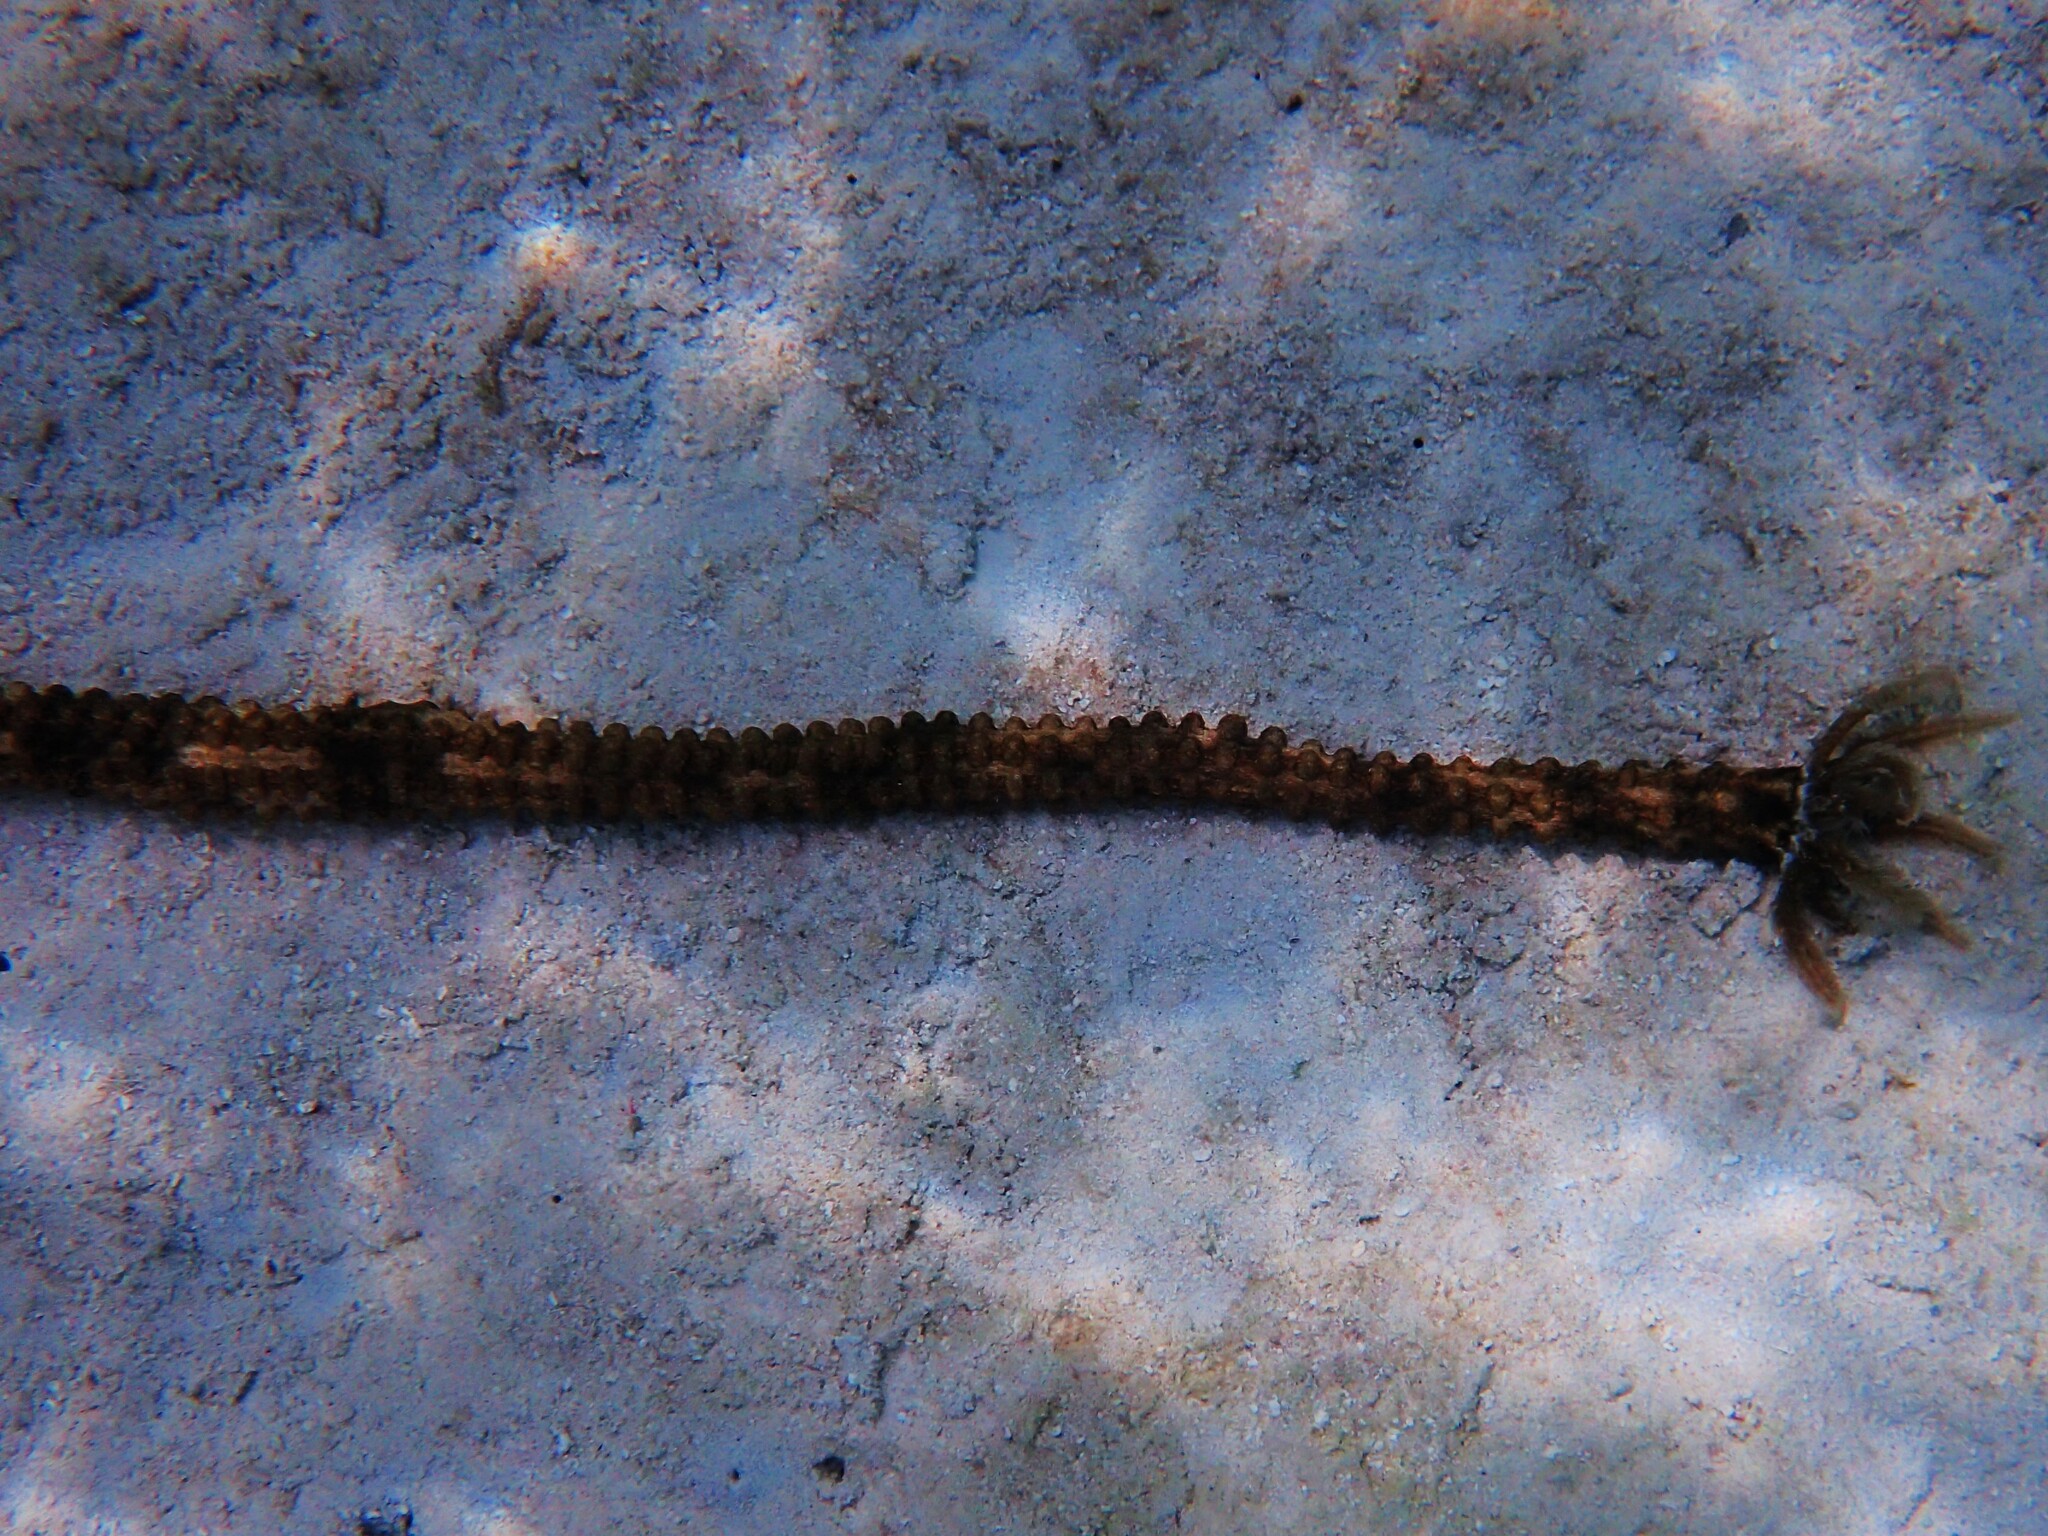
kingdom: Animalia
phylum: Echinodermata
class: Holothuroidea
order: Apodida
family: Synaptidae
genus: Synapta
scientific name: Synapta maculata
